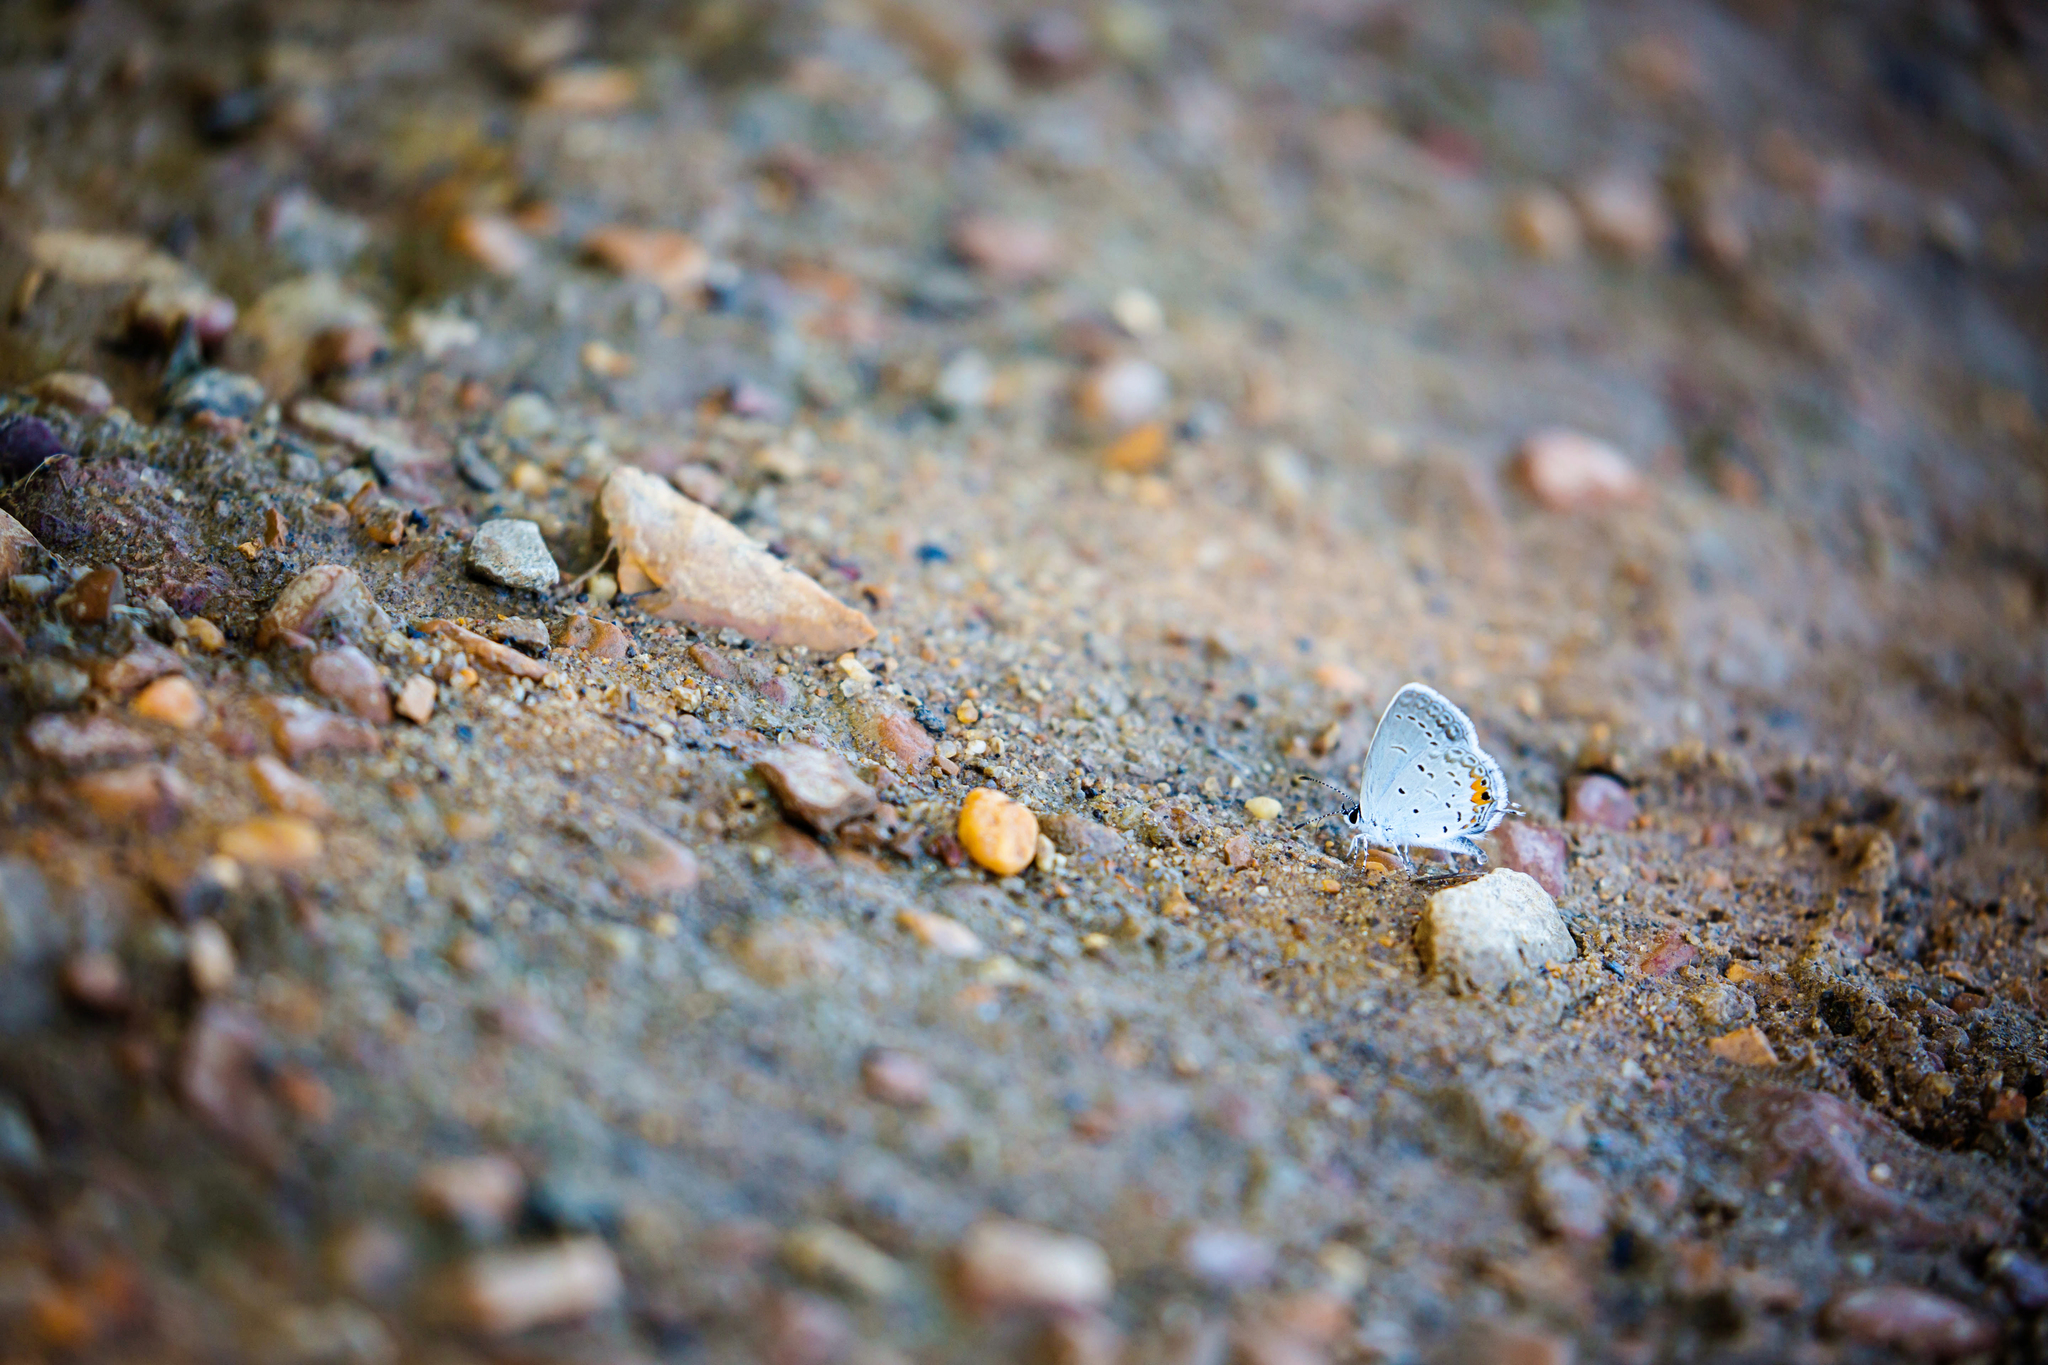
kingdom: Animalia
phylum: Arthropoda
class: Insecta
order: Lepidoptera
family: Lycaenidae
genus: Elkalyce
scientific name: Elkalyce comyntas
